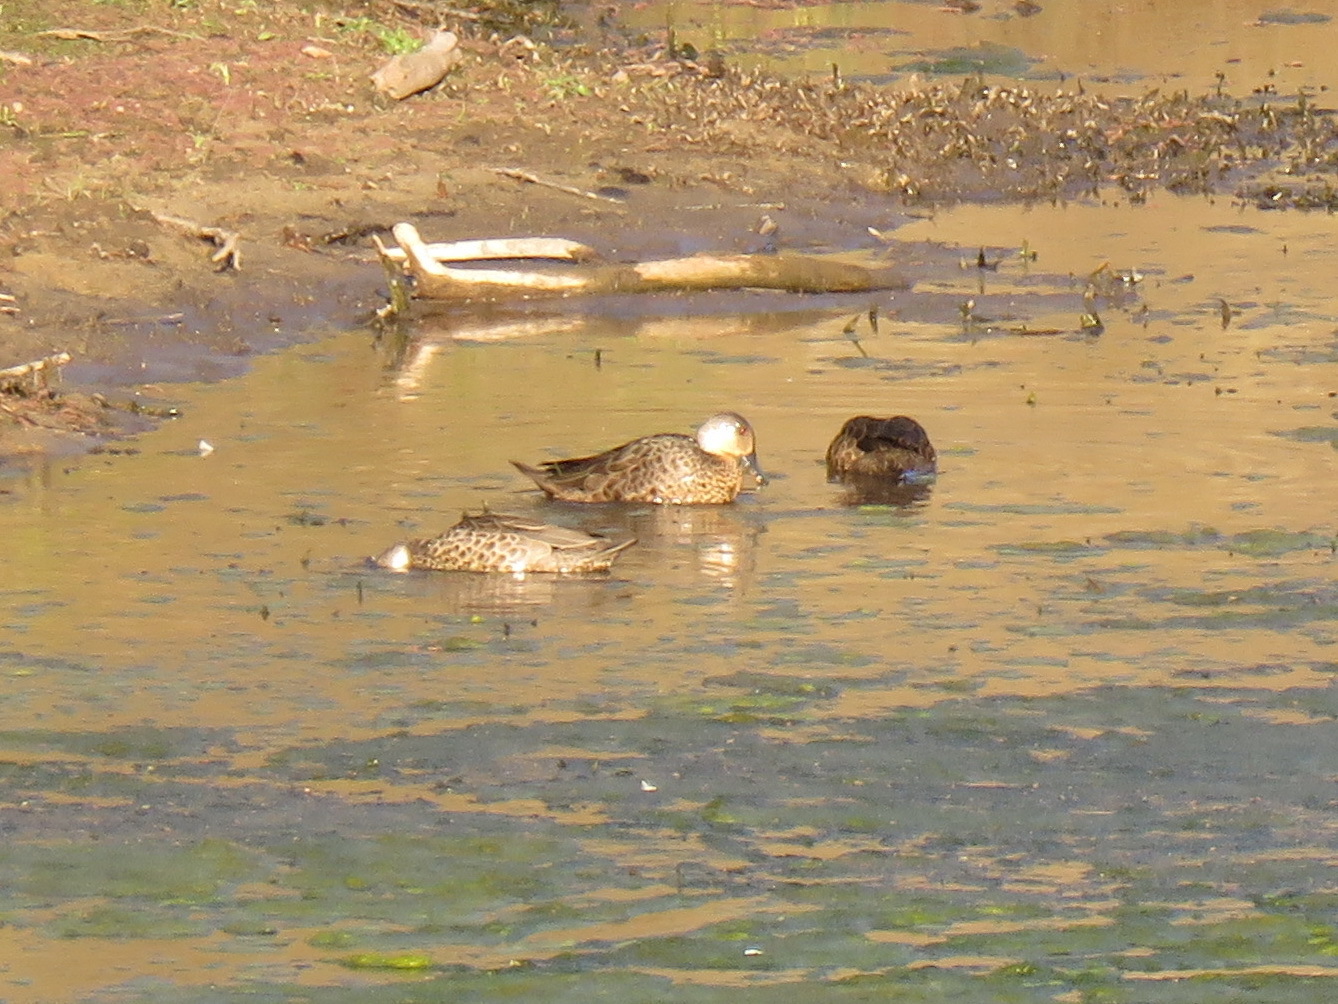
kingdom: Animalia
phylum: Chordata
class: Aves
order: Anseriformes
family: Anatidae
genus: Anas
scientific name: Anas gracilis
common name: Grey teal
